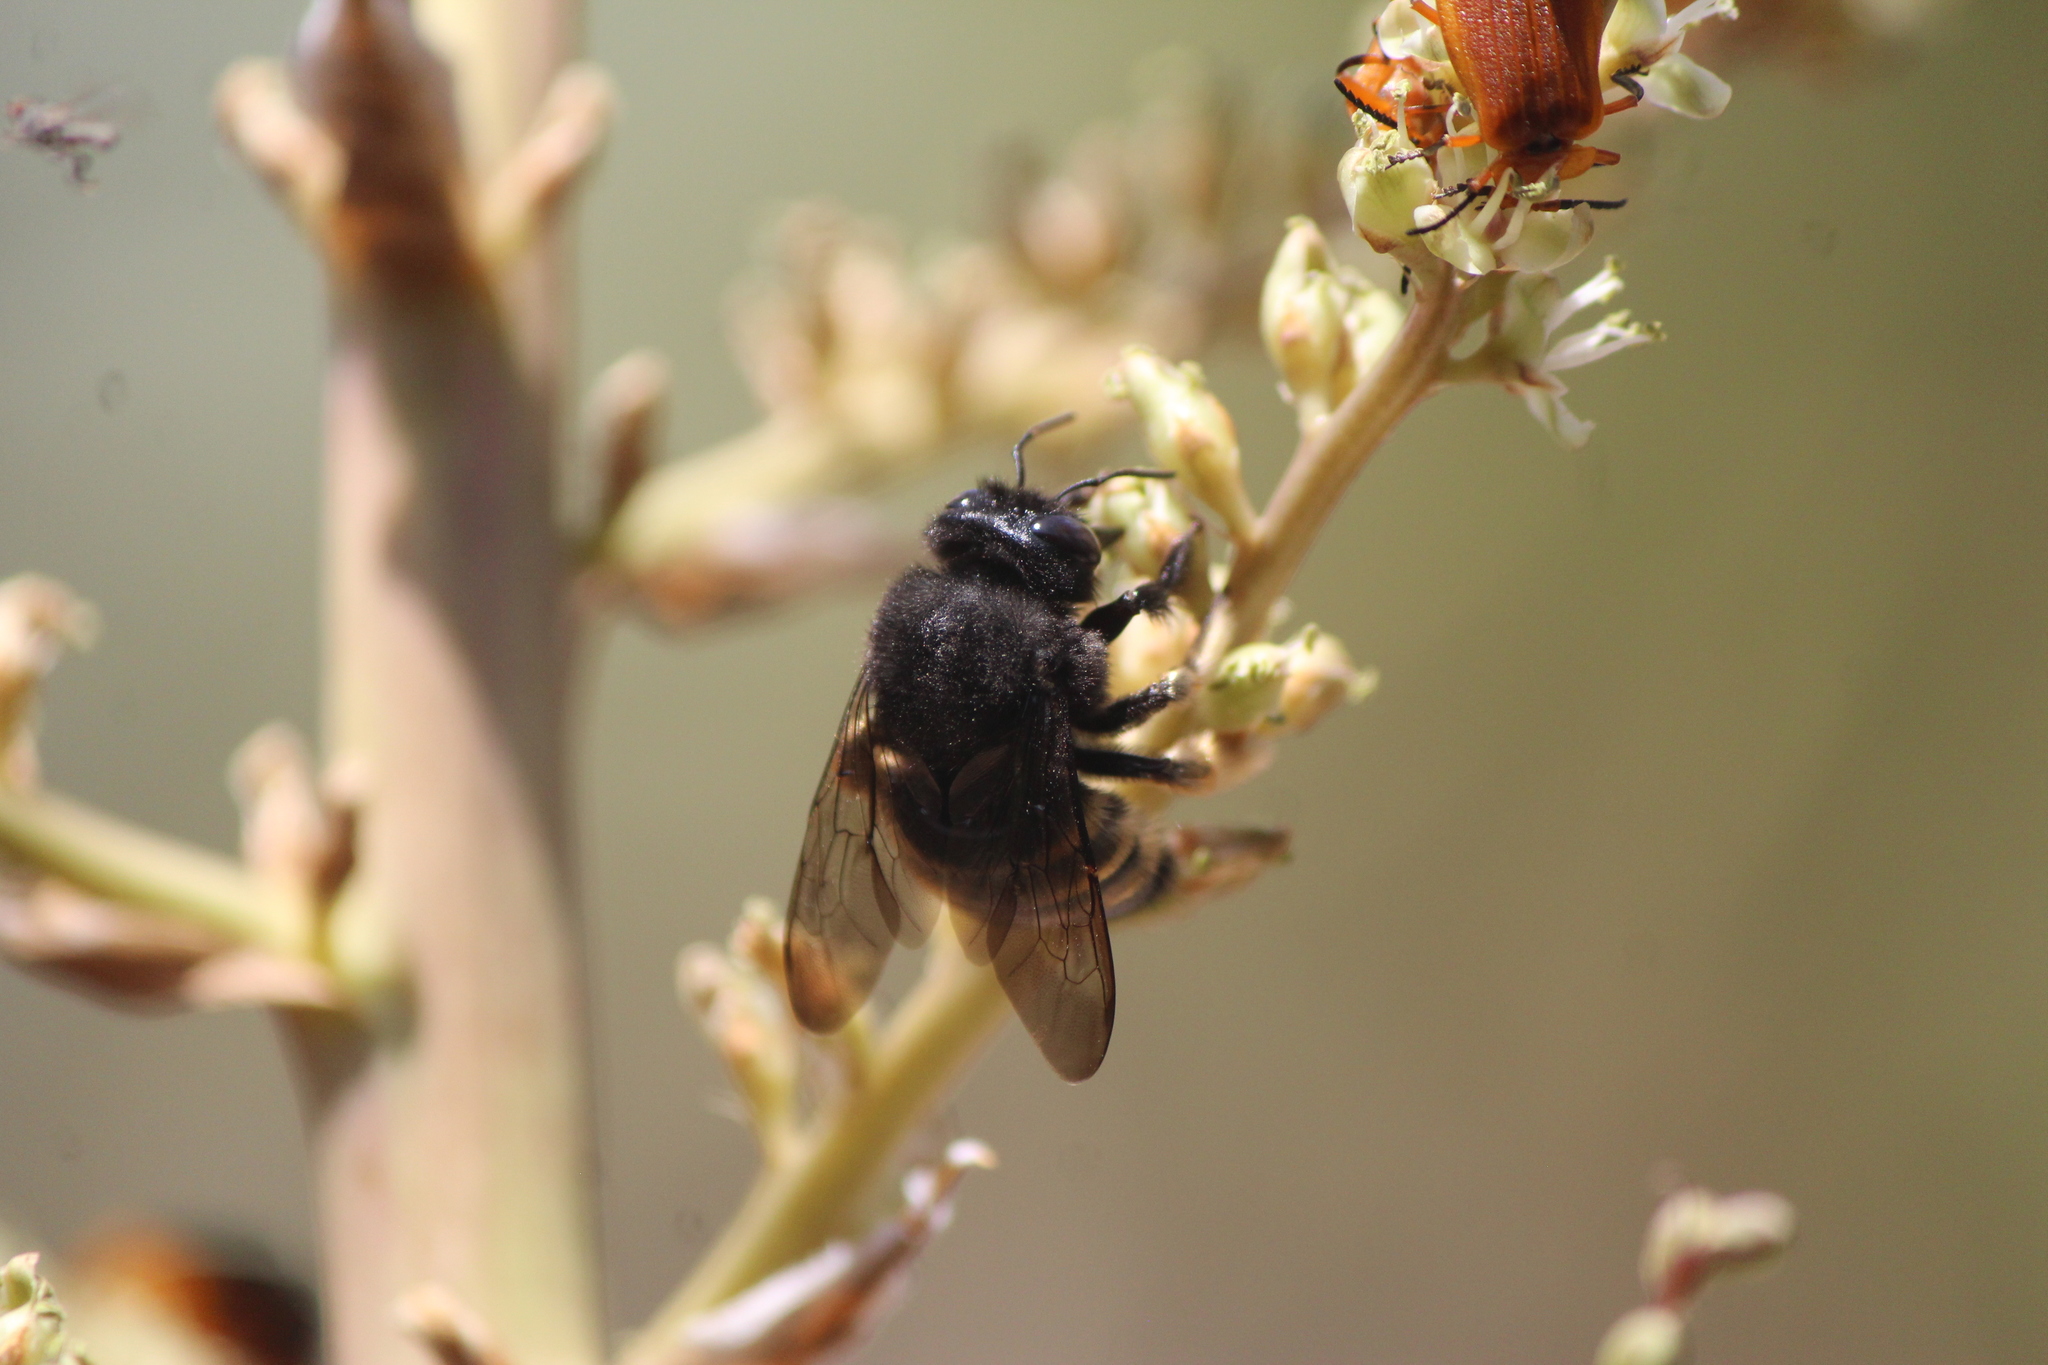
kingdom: Animalia
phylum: Arthropoda
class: Insecta
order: Hymenoptera
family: Apidae
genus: Xylocopa
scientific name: Xylocopa tabaniformis
